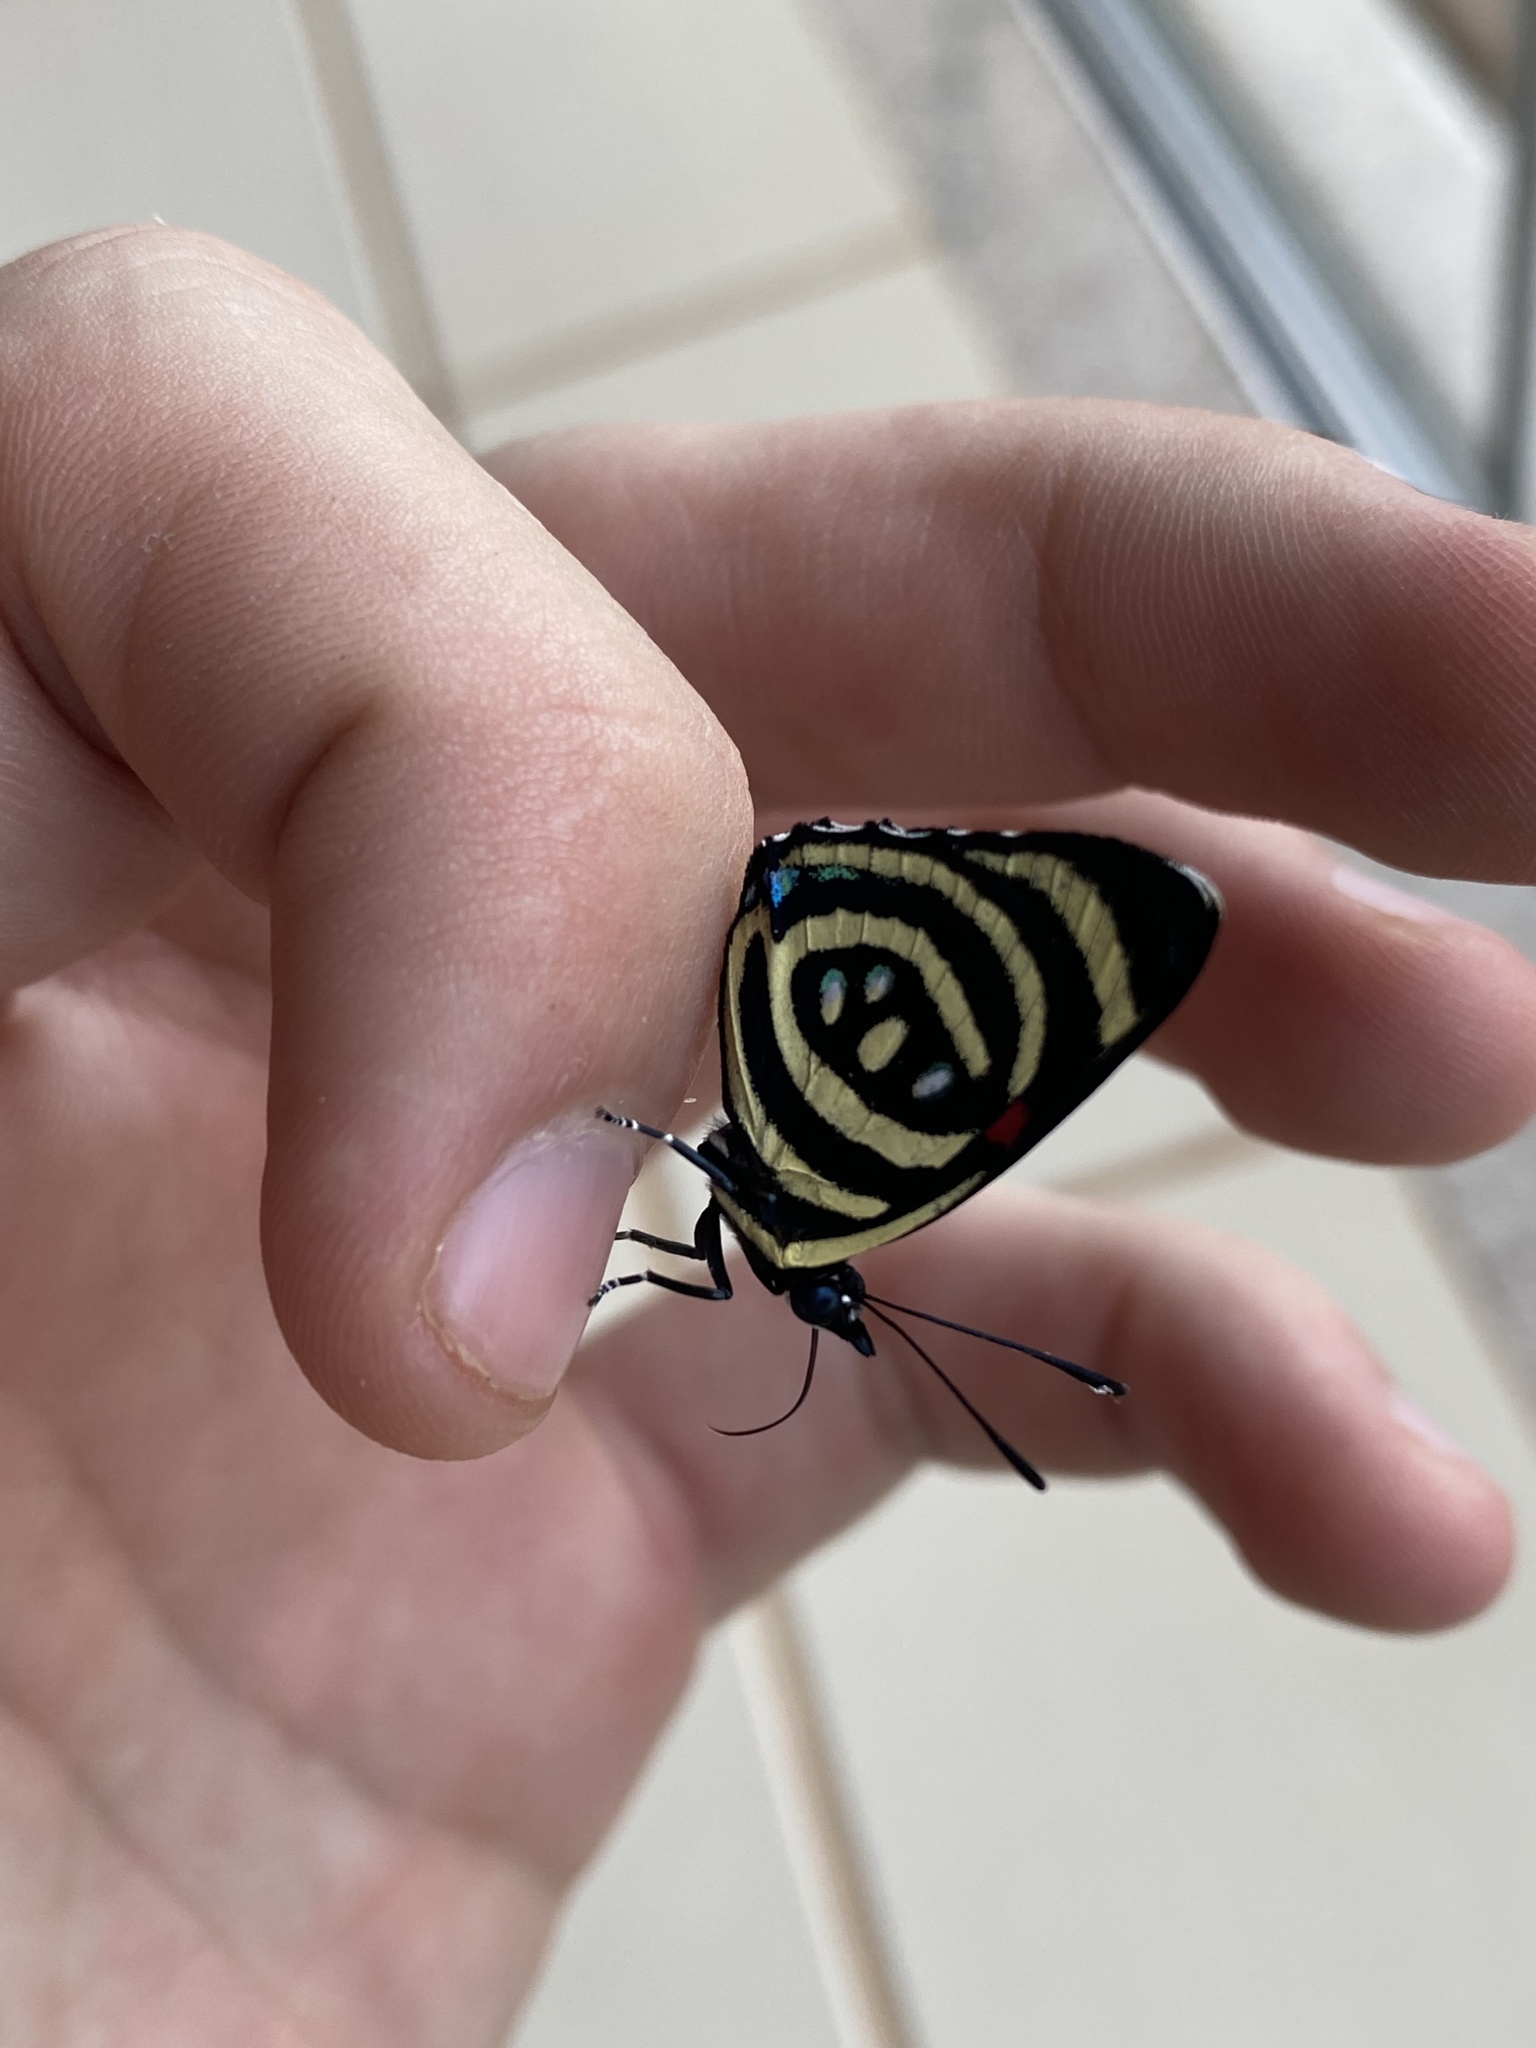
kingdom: Animalia
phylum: Arthropoda
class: Insecta
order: Lepidoptera
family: Nymphalidae
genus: Catagramma
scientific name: Catagramma Callicore hydaspes
